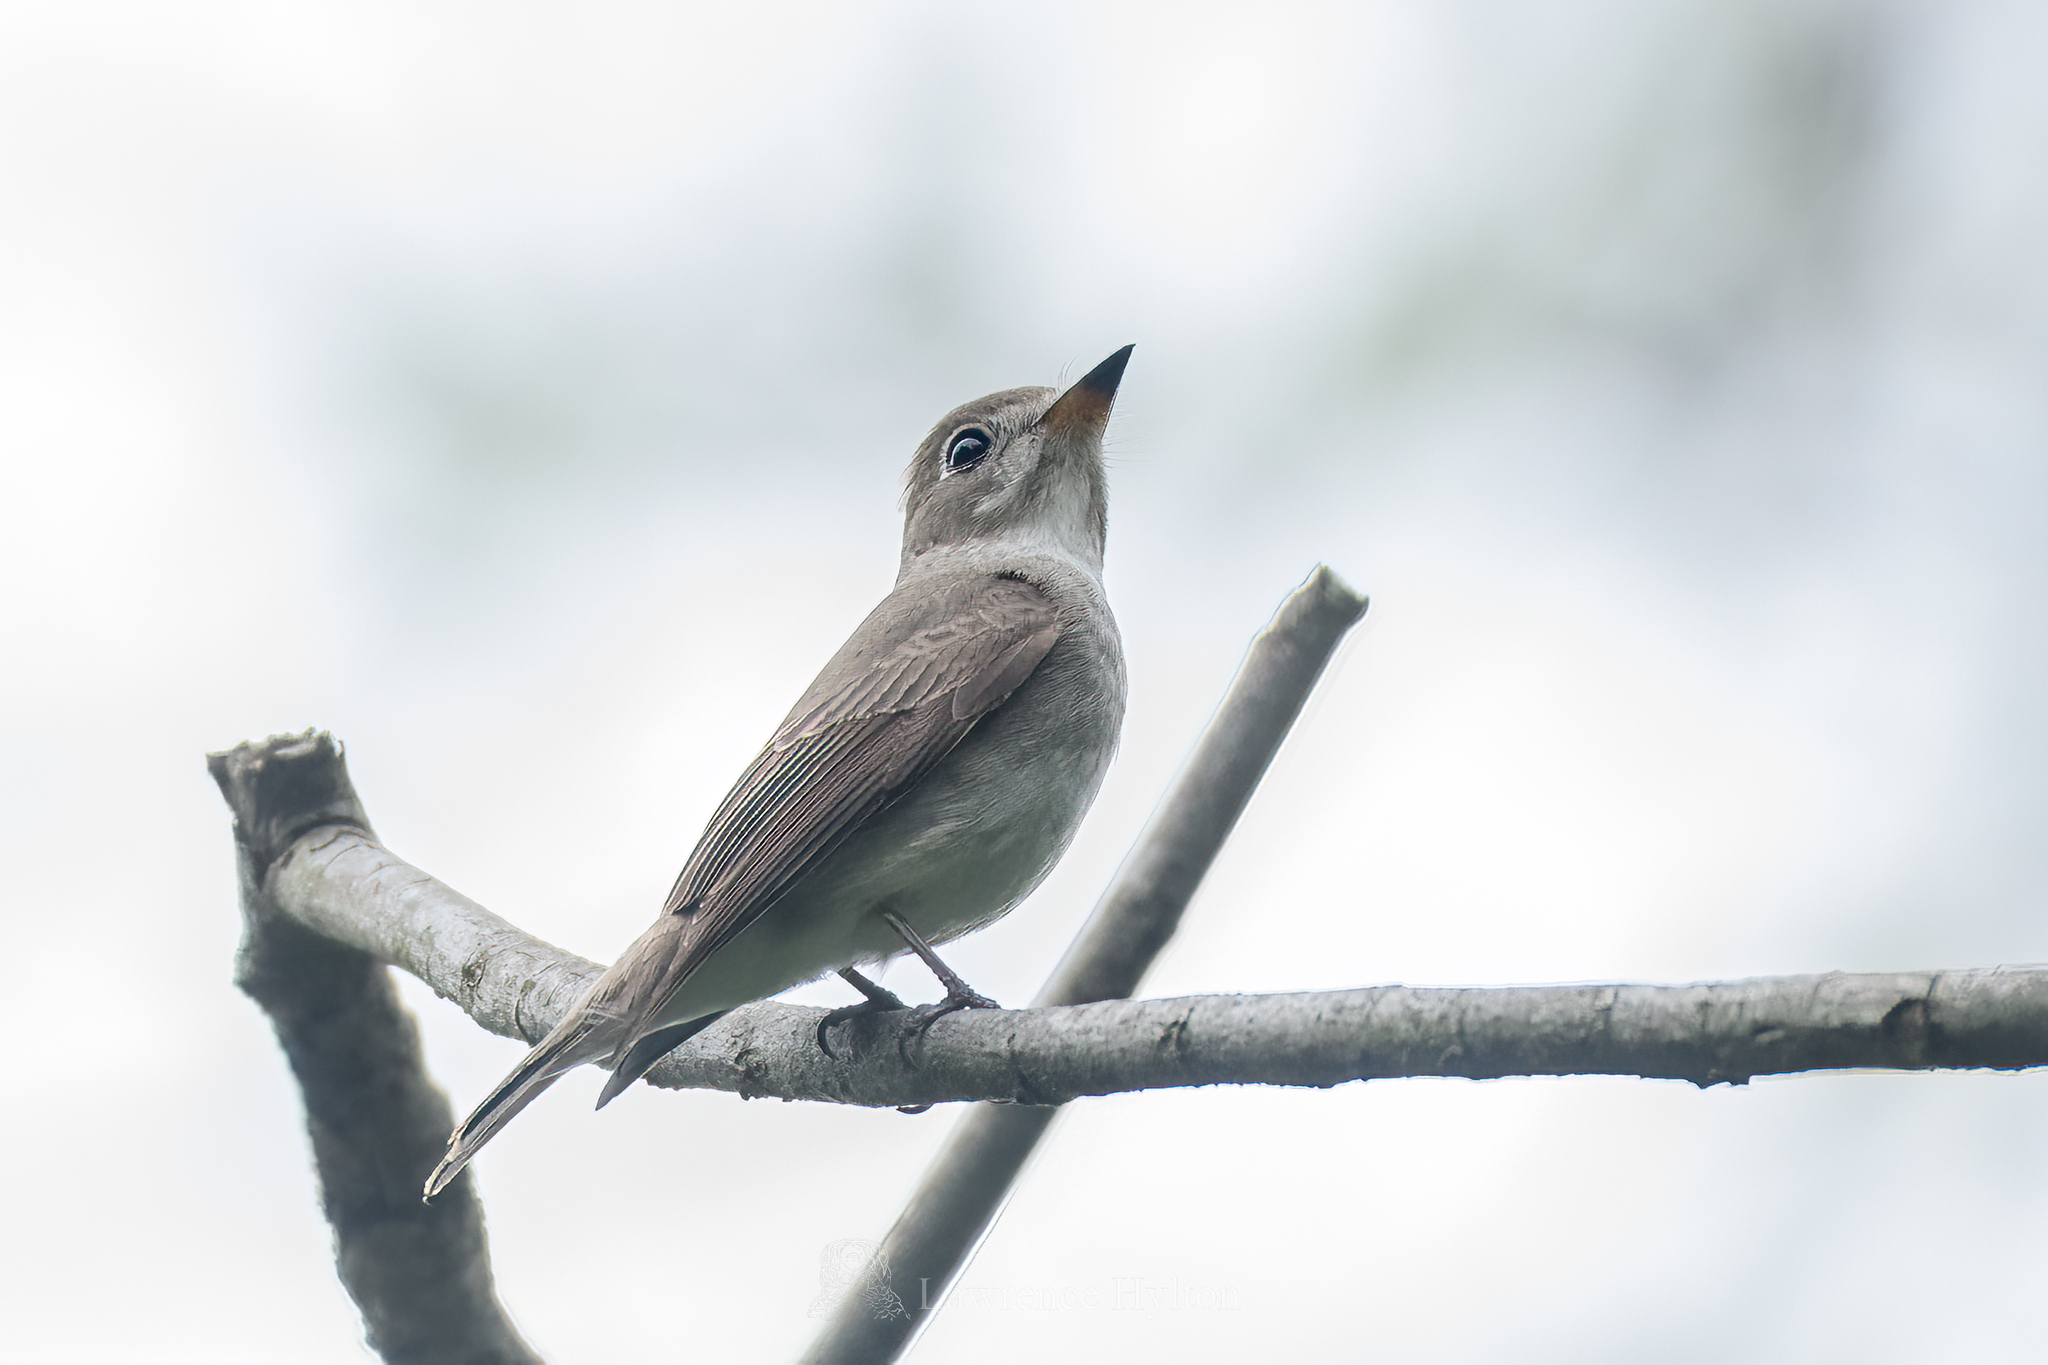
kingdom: Animalia
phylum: Chordata
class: Aves
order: Passeriformes
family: Muscicapidae
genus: Muscicapa
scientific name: Muscicapa latirostris
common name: Asian brown flycatcher
